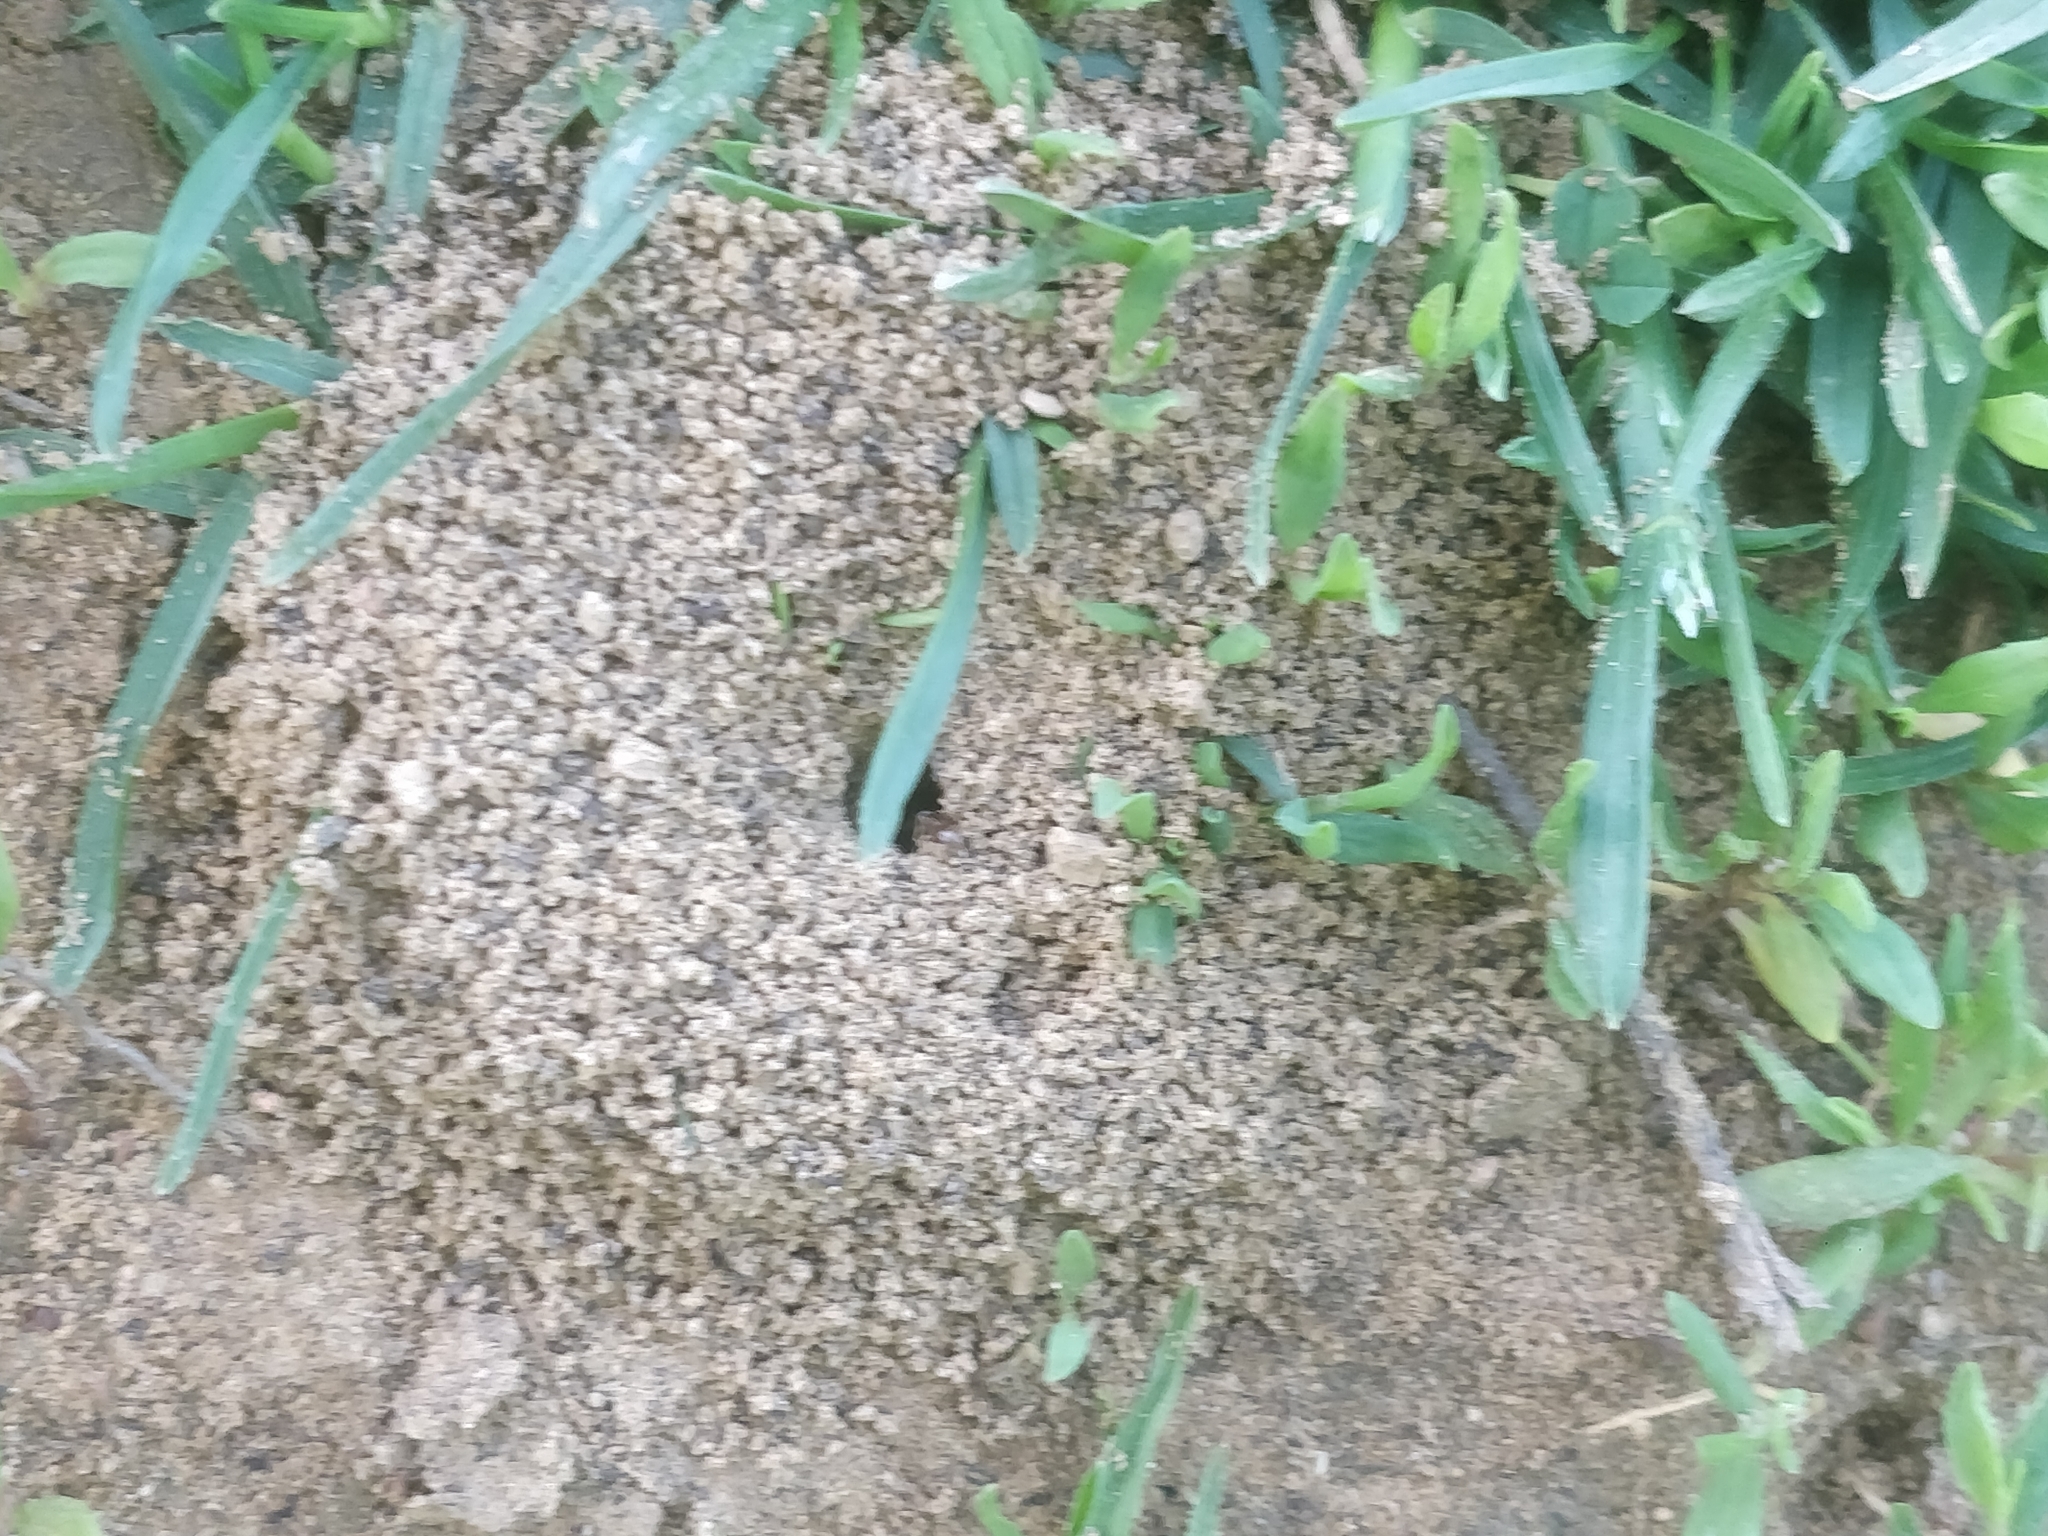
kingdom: Animalia
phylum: Arthropoda
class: Insecta
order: Hymenoptera
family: Formicidae
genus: Lasius
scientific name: Lasius neoniger
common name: Turfgrass ant
